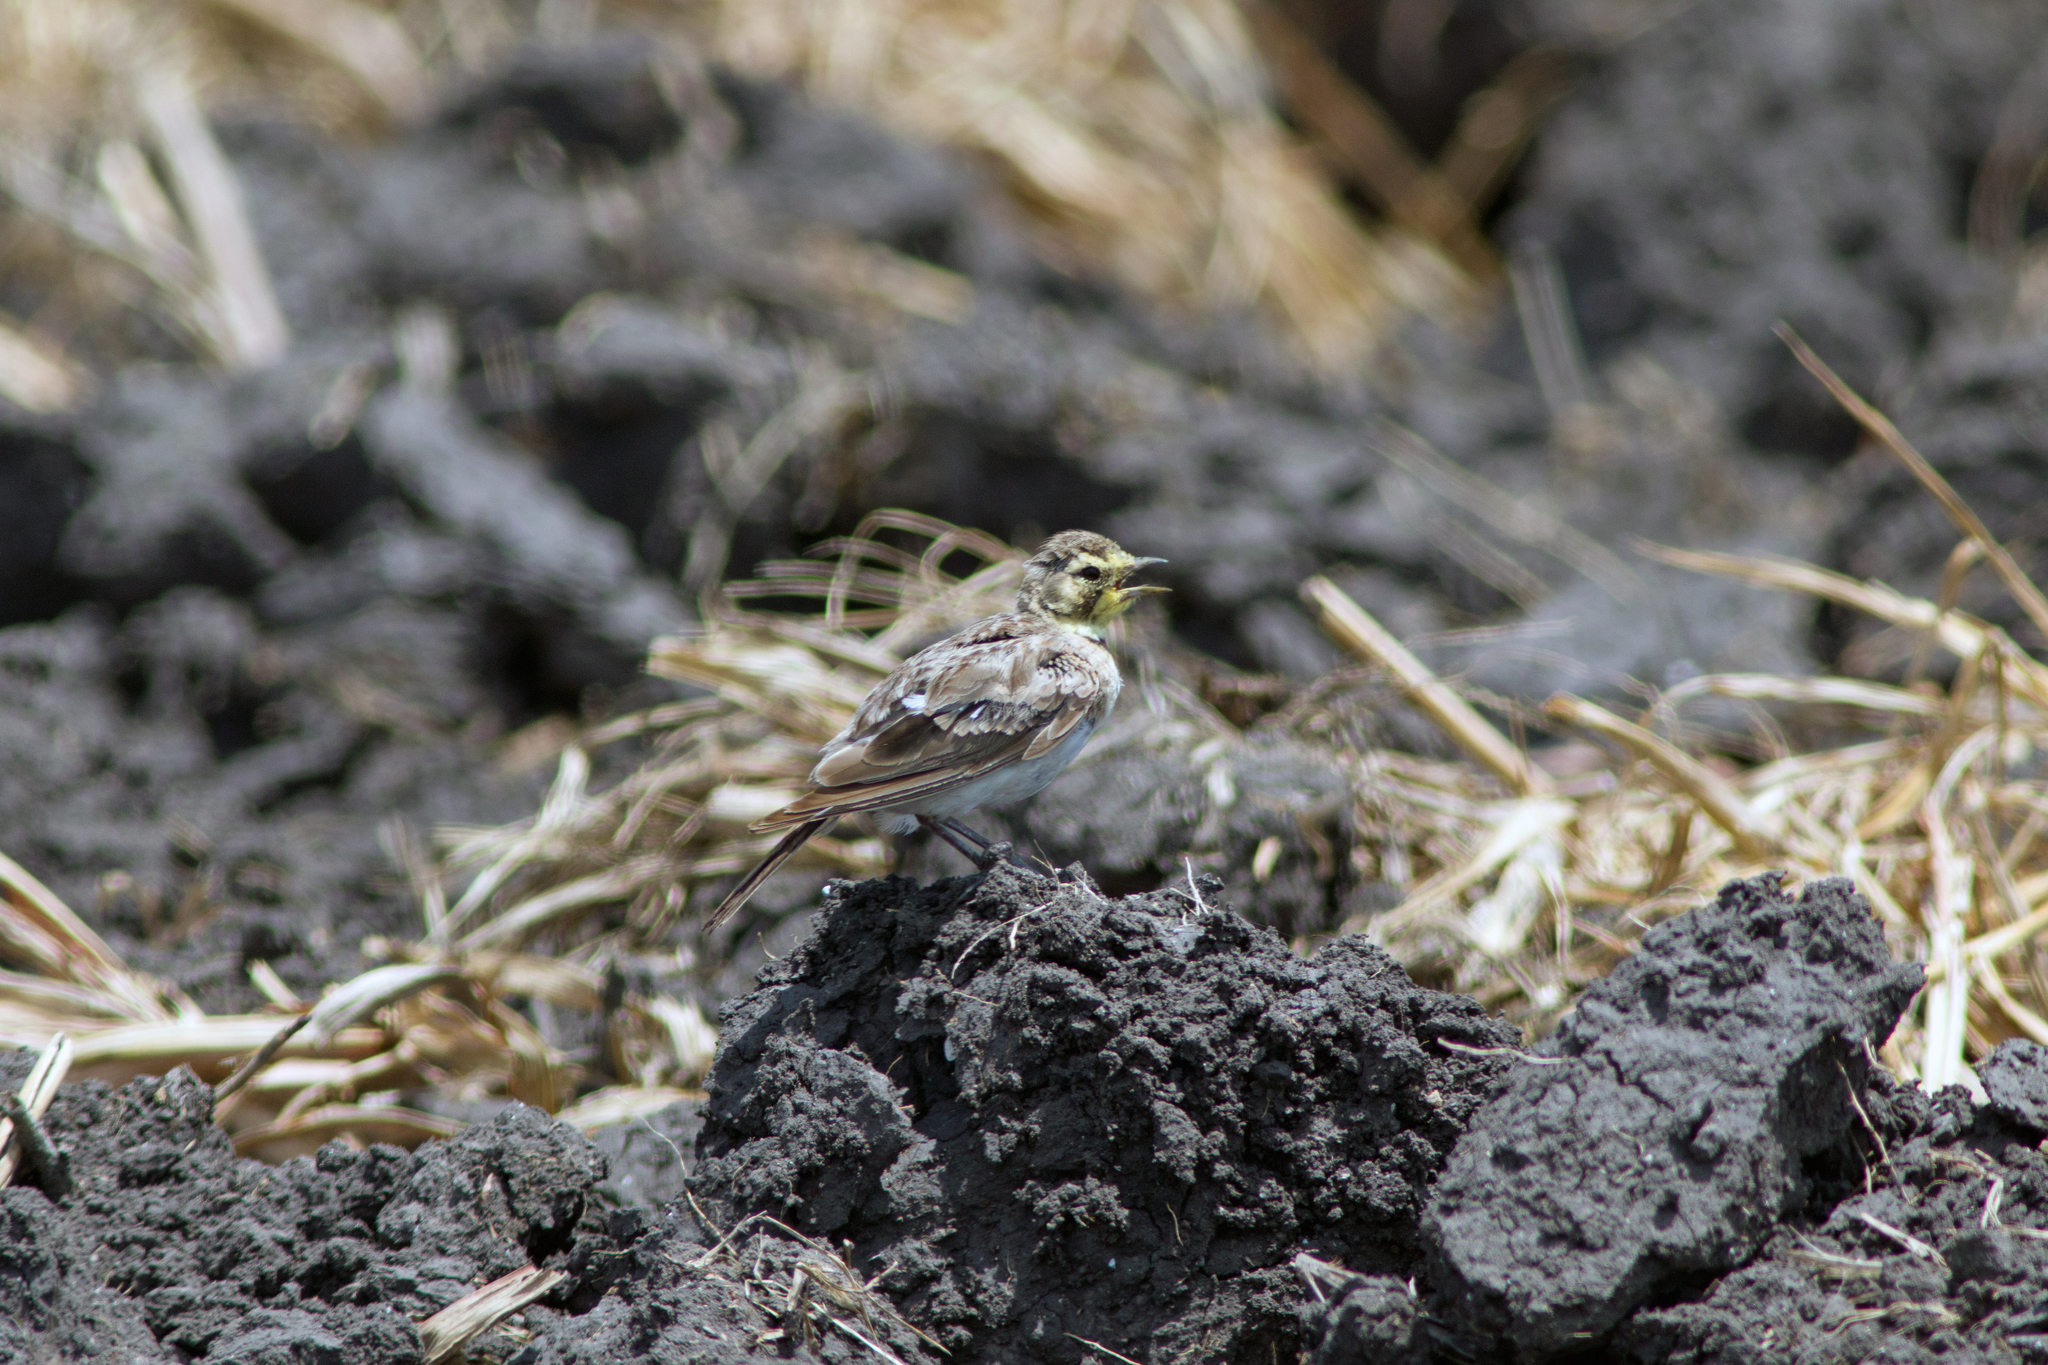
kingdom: Animalia
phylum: Chordata
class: Aves
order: Passeriformes
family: Alaudidae
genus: Eremophila
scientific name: Eremophila alpestris
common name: Horned lark
